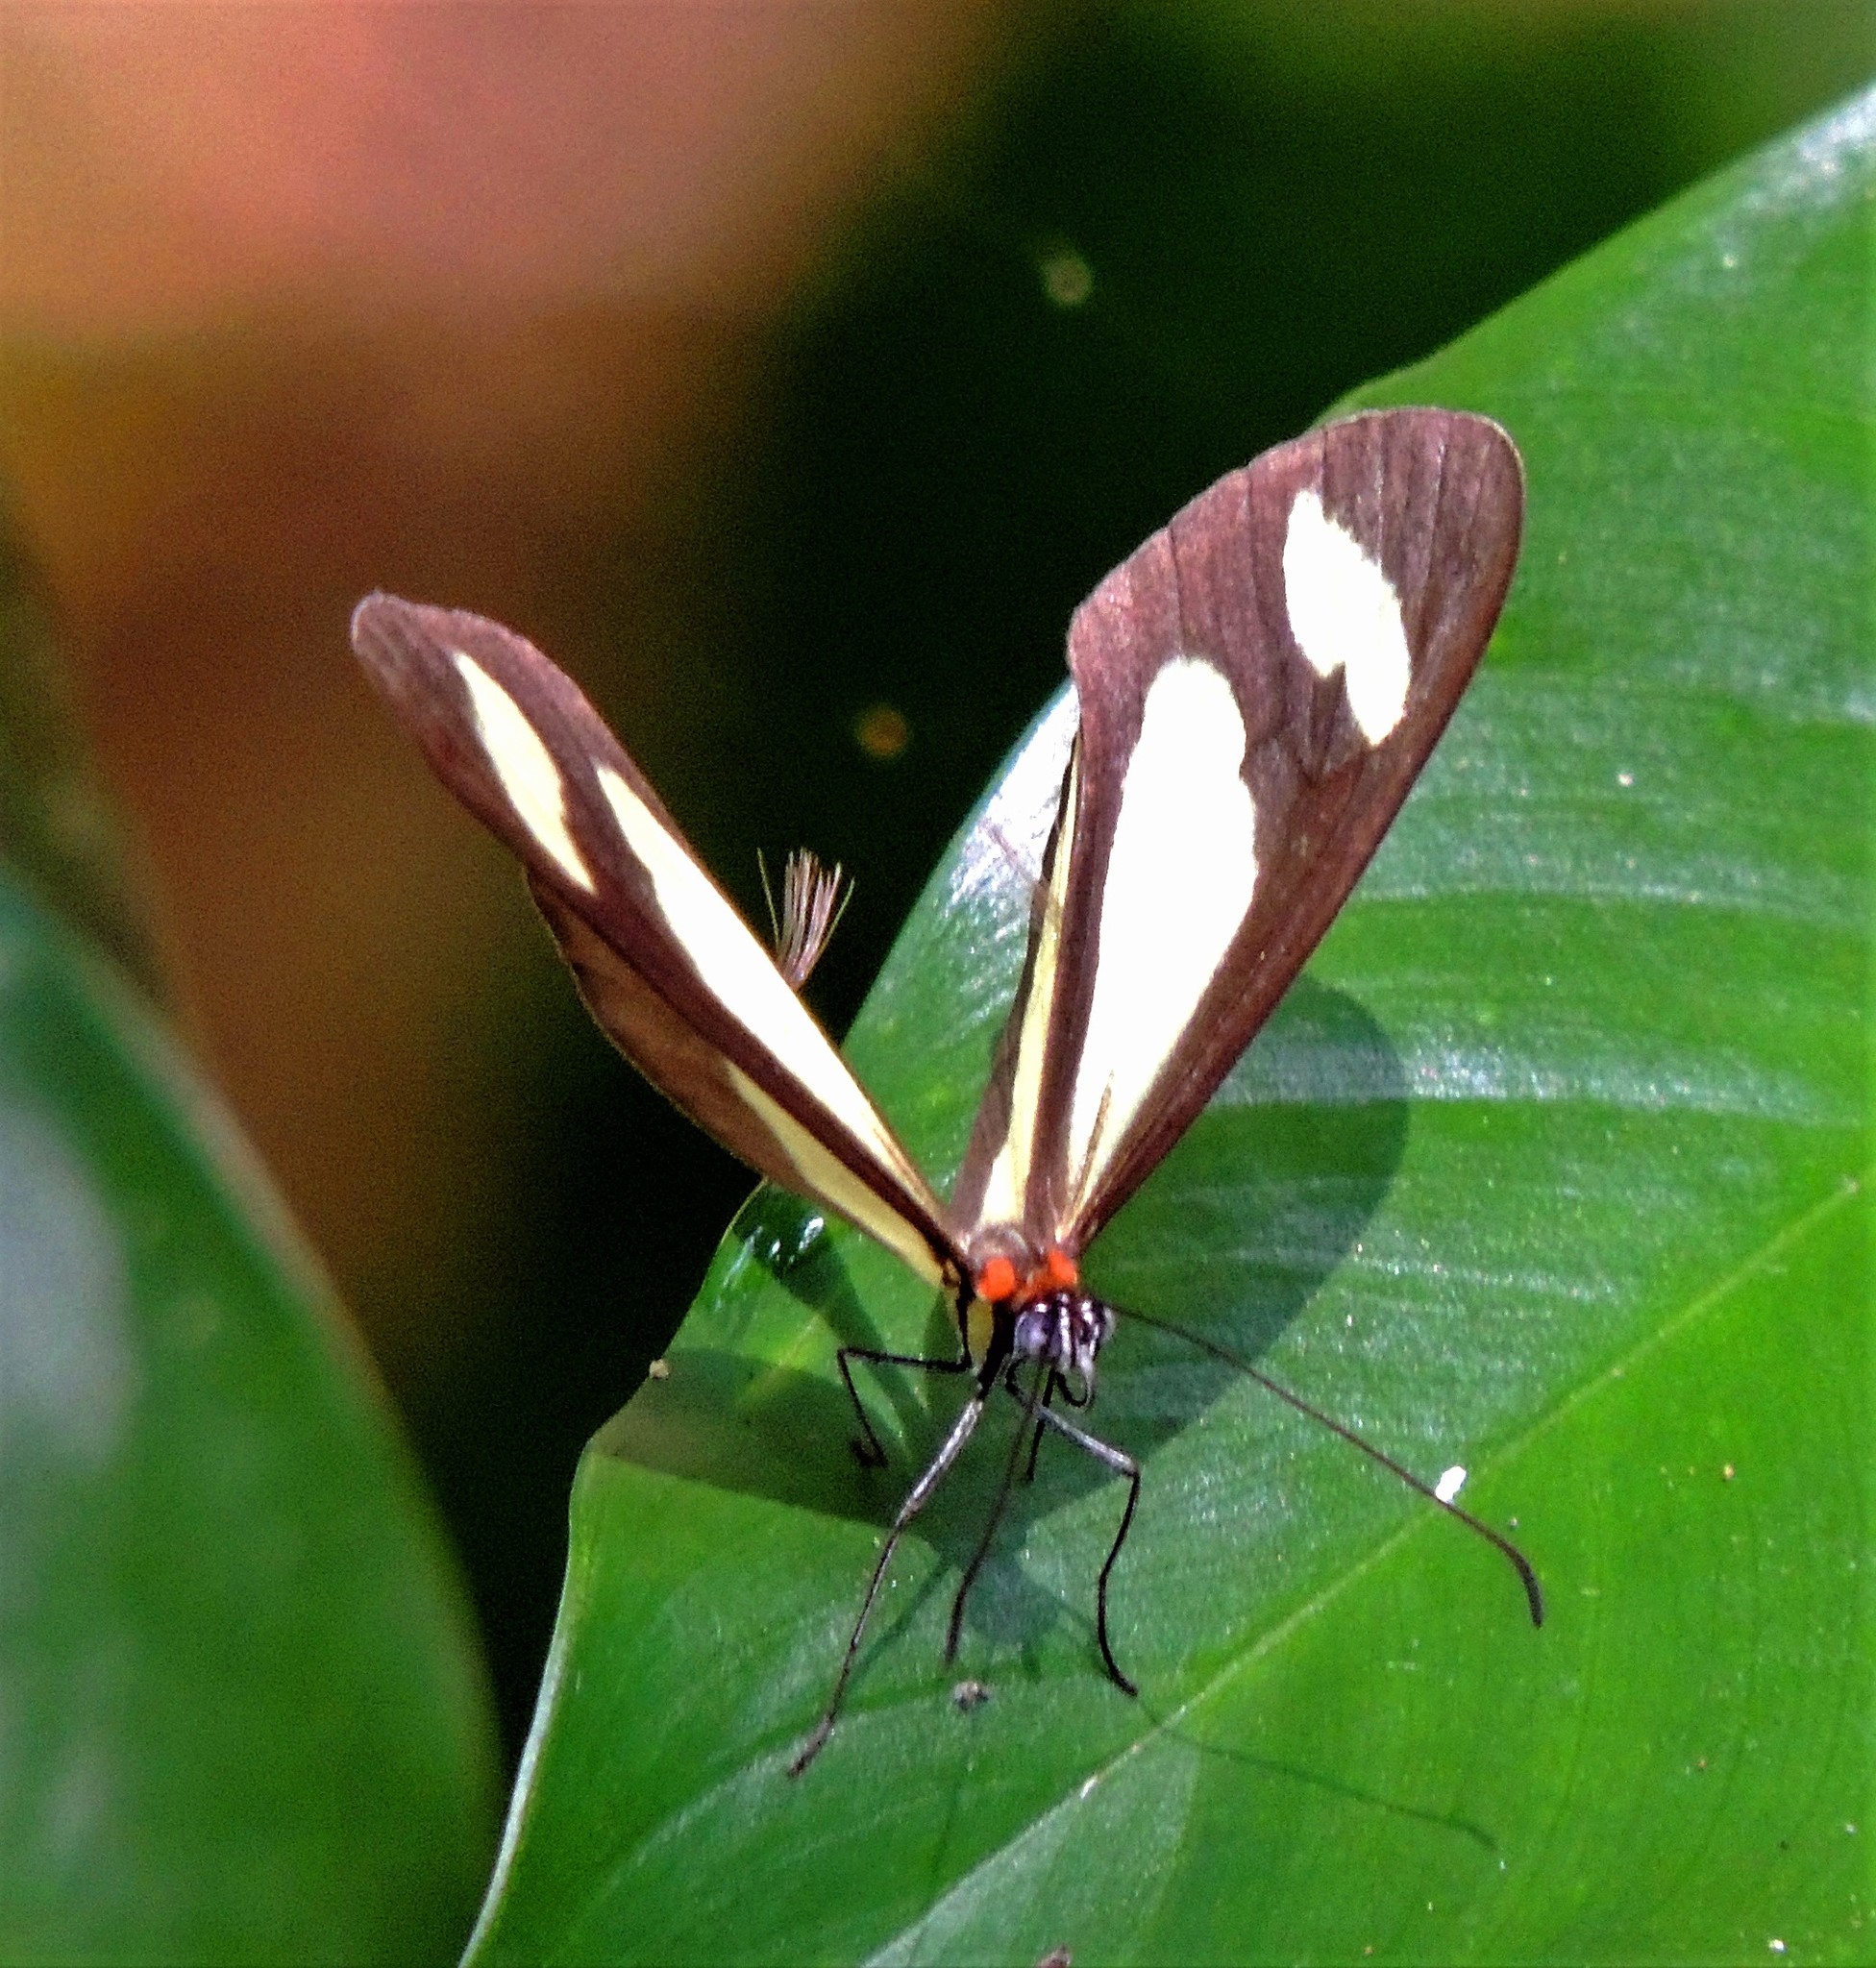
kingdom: Animalia
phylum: Arthropoda
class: Insecta
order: Lepidoptera
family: Nymphalidae
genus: Aeria
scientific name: Aeria olena
